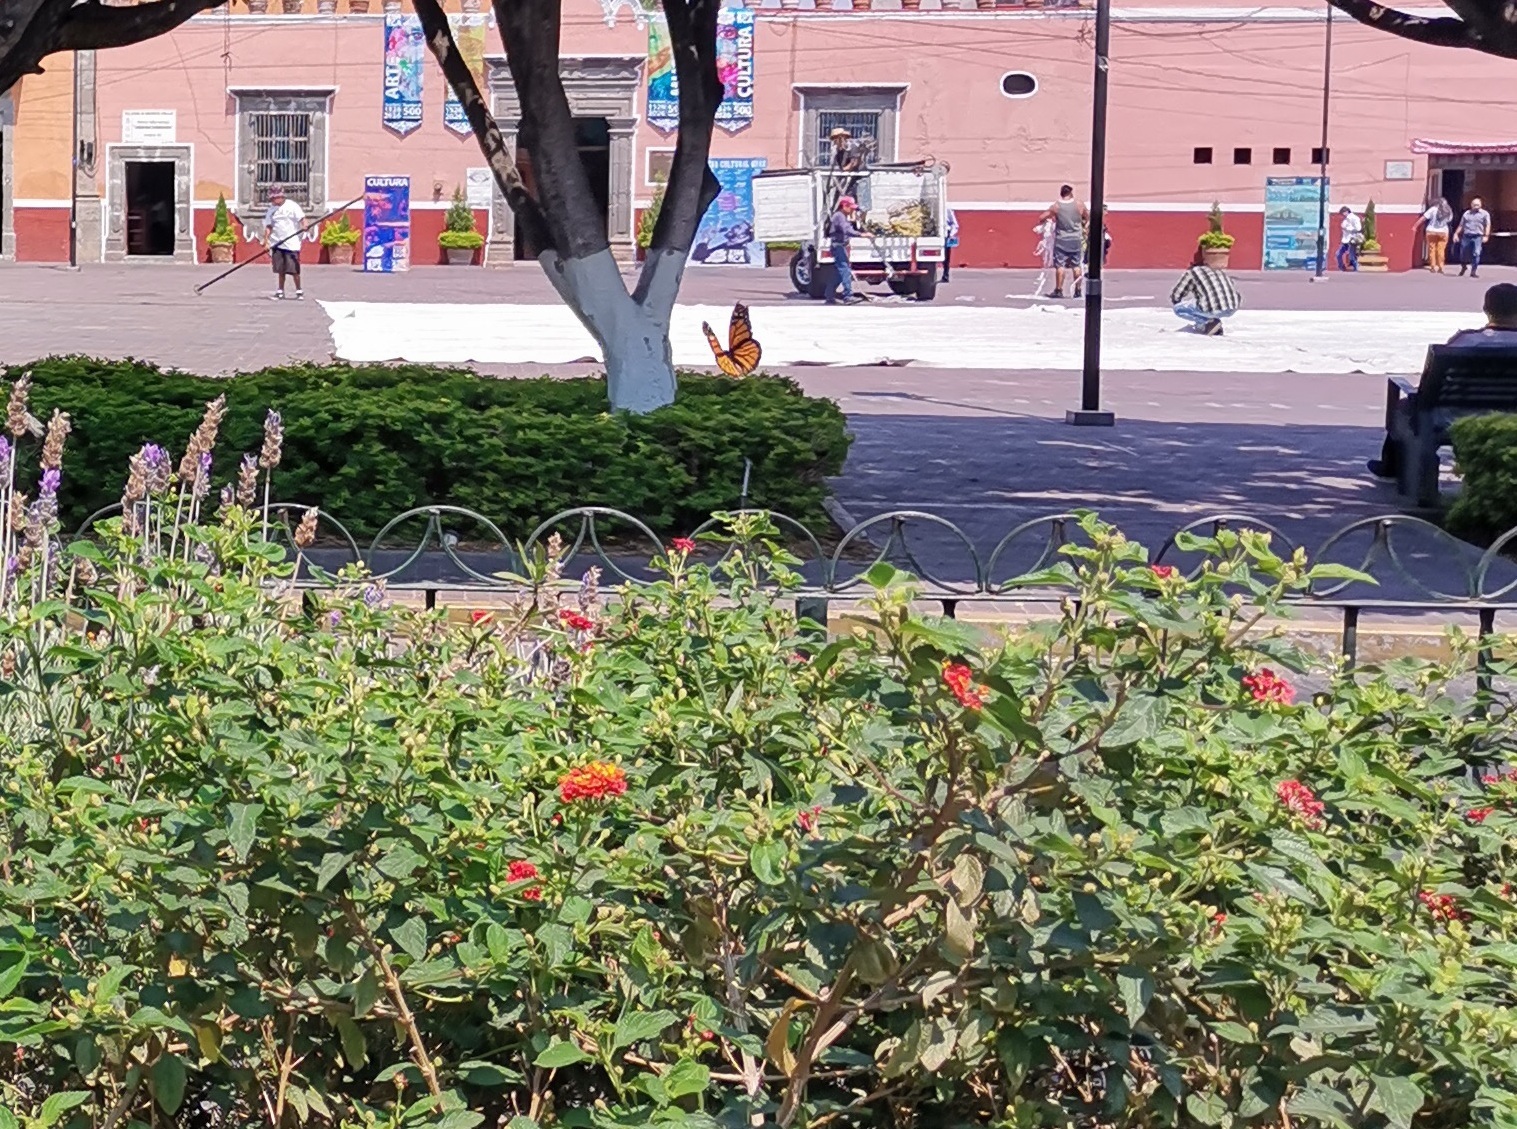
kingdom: Animalia
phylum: Arthropoda
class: Insecta
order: Lepidoptera
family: Nymphalidae
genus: Danaus
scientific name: Danaus plexippus
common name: Monarch
